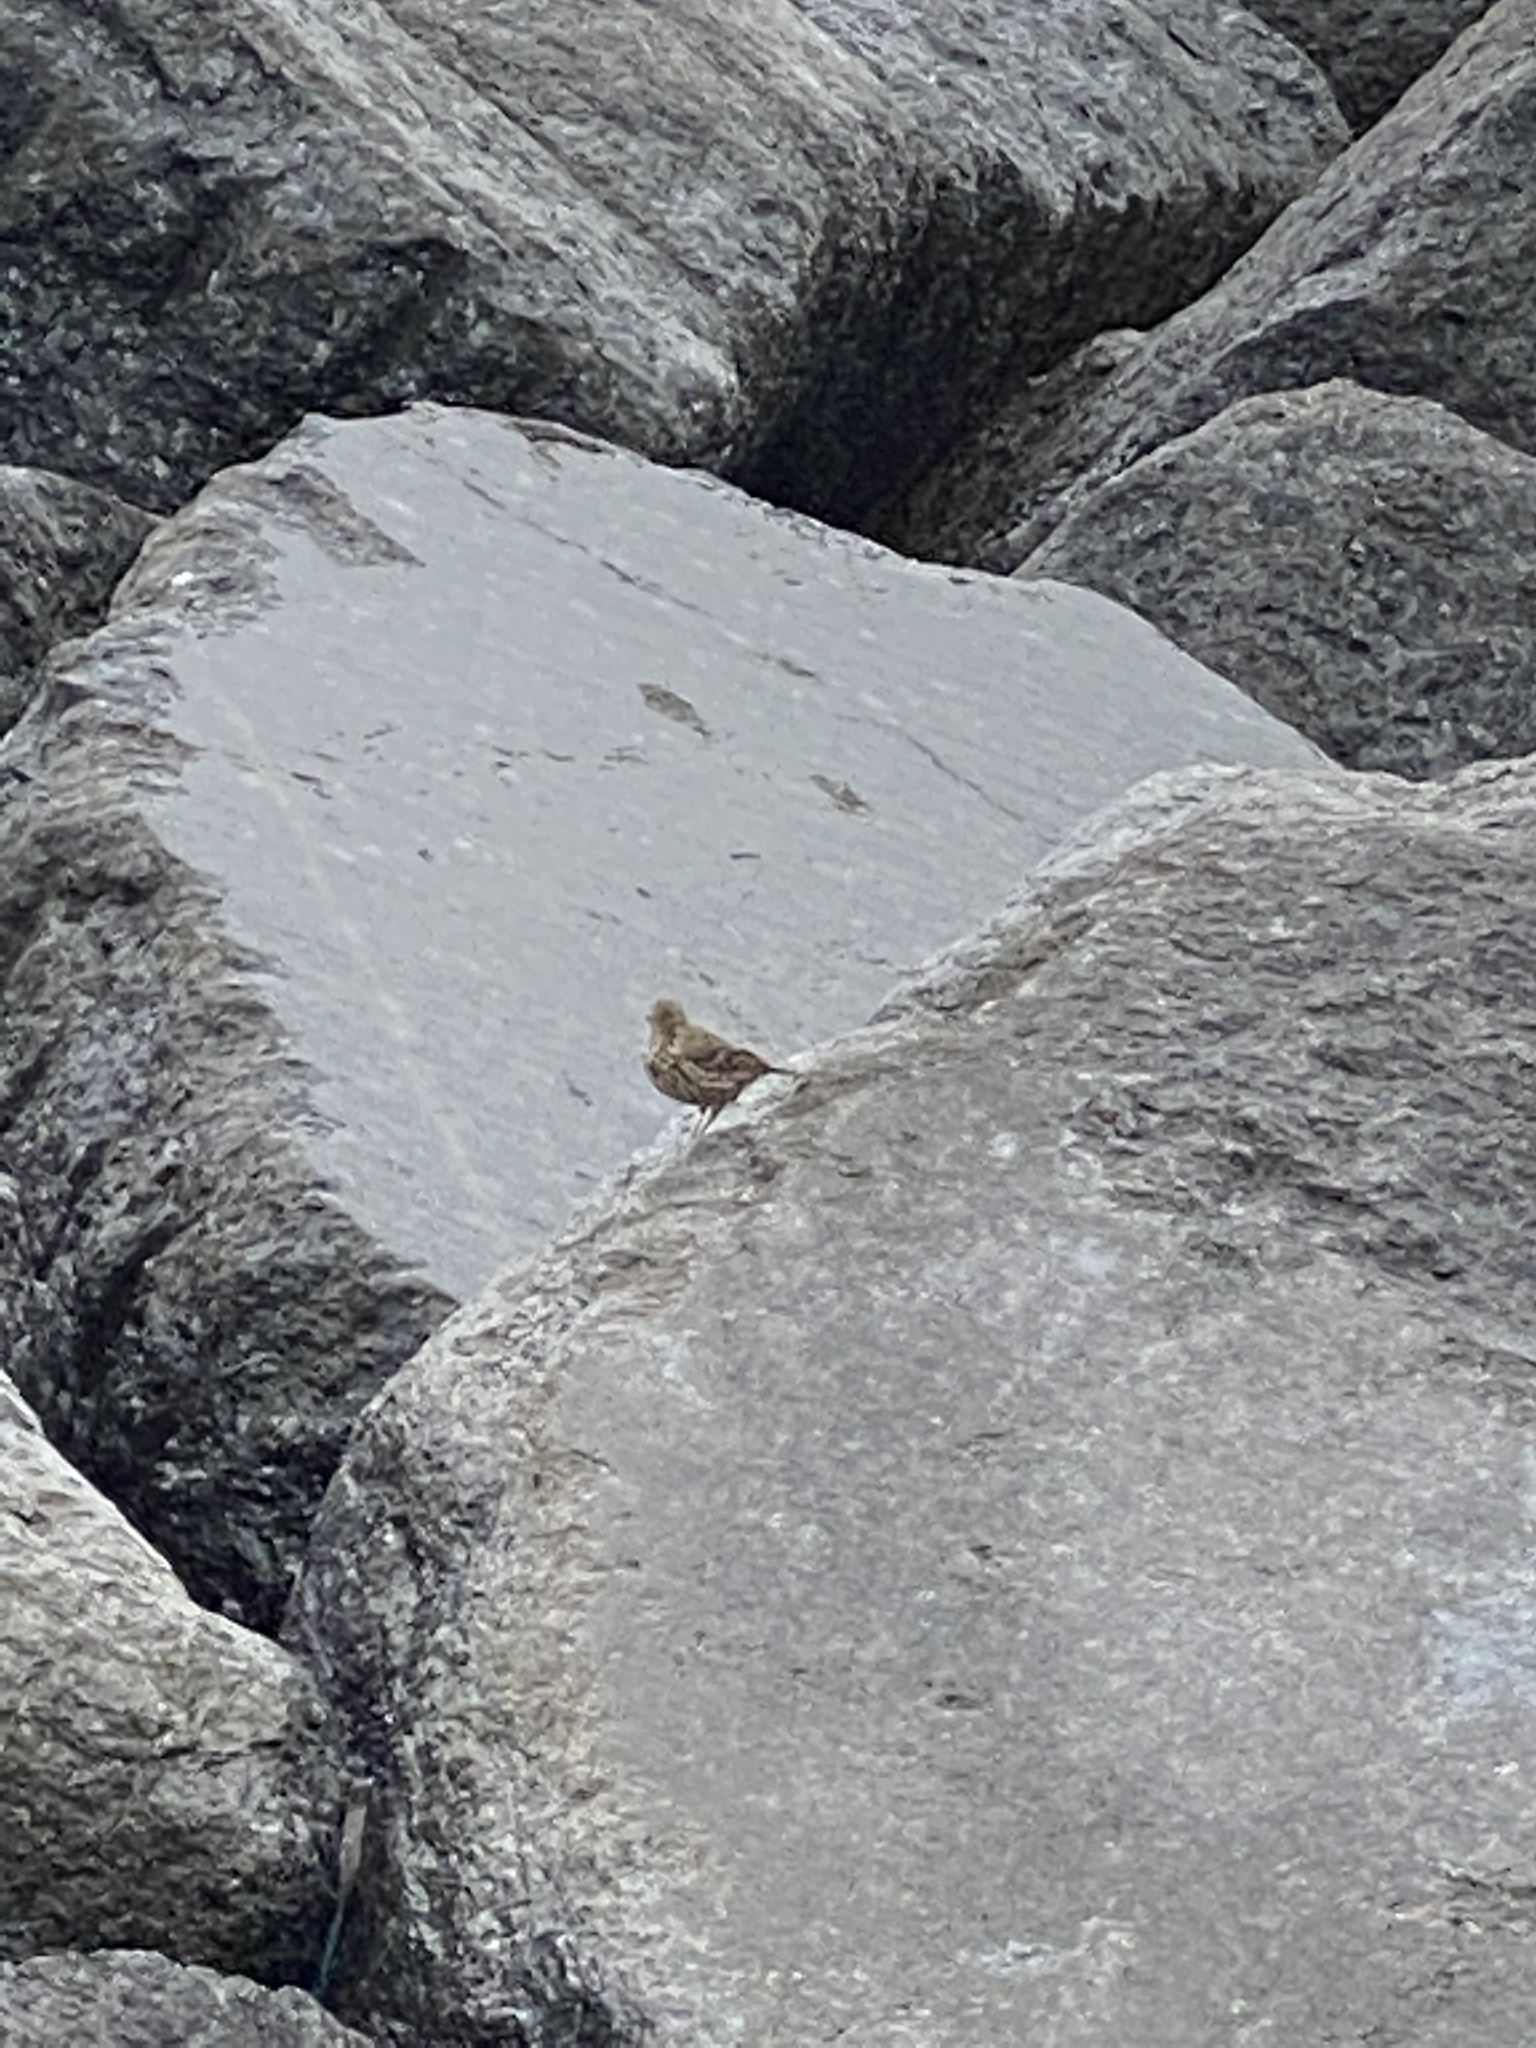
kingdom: Animalia
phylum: Chordata
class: Aves
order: Passeriformes
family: Motacillidae
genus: Anthus
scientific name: Anthus petrosus
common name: Eurasian rock pipit
